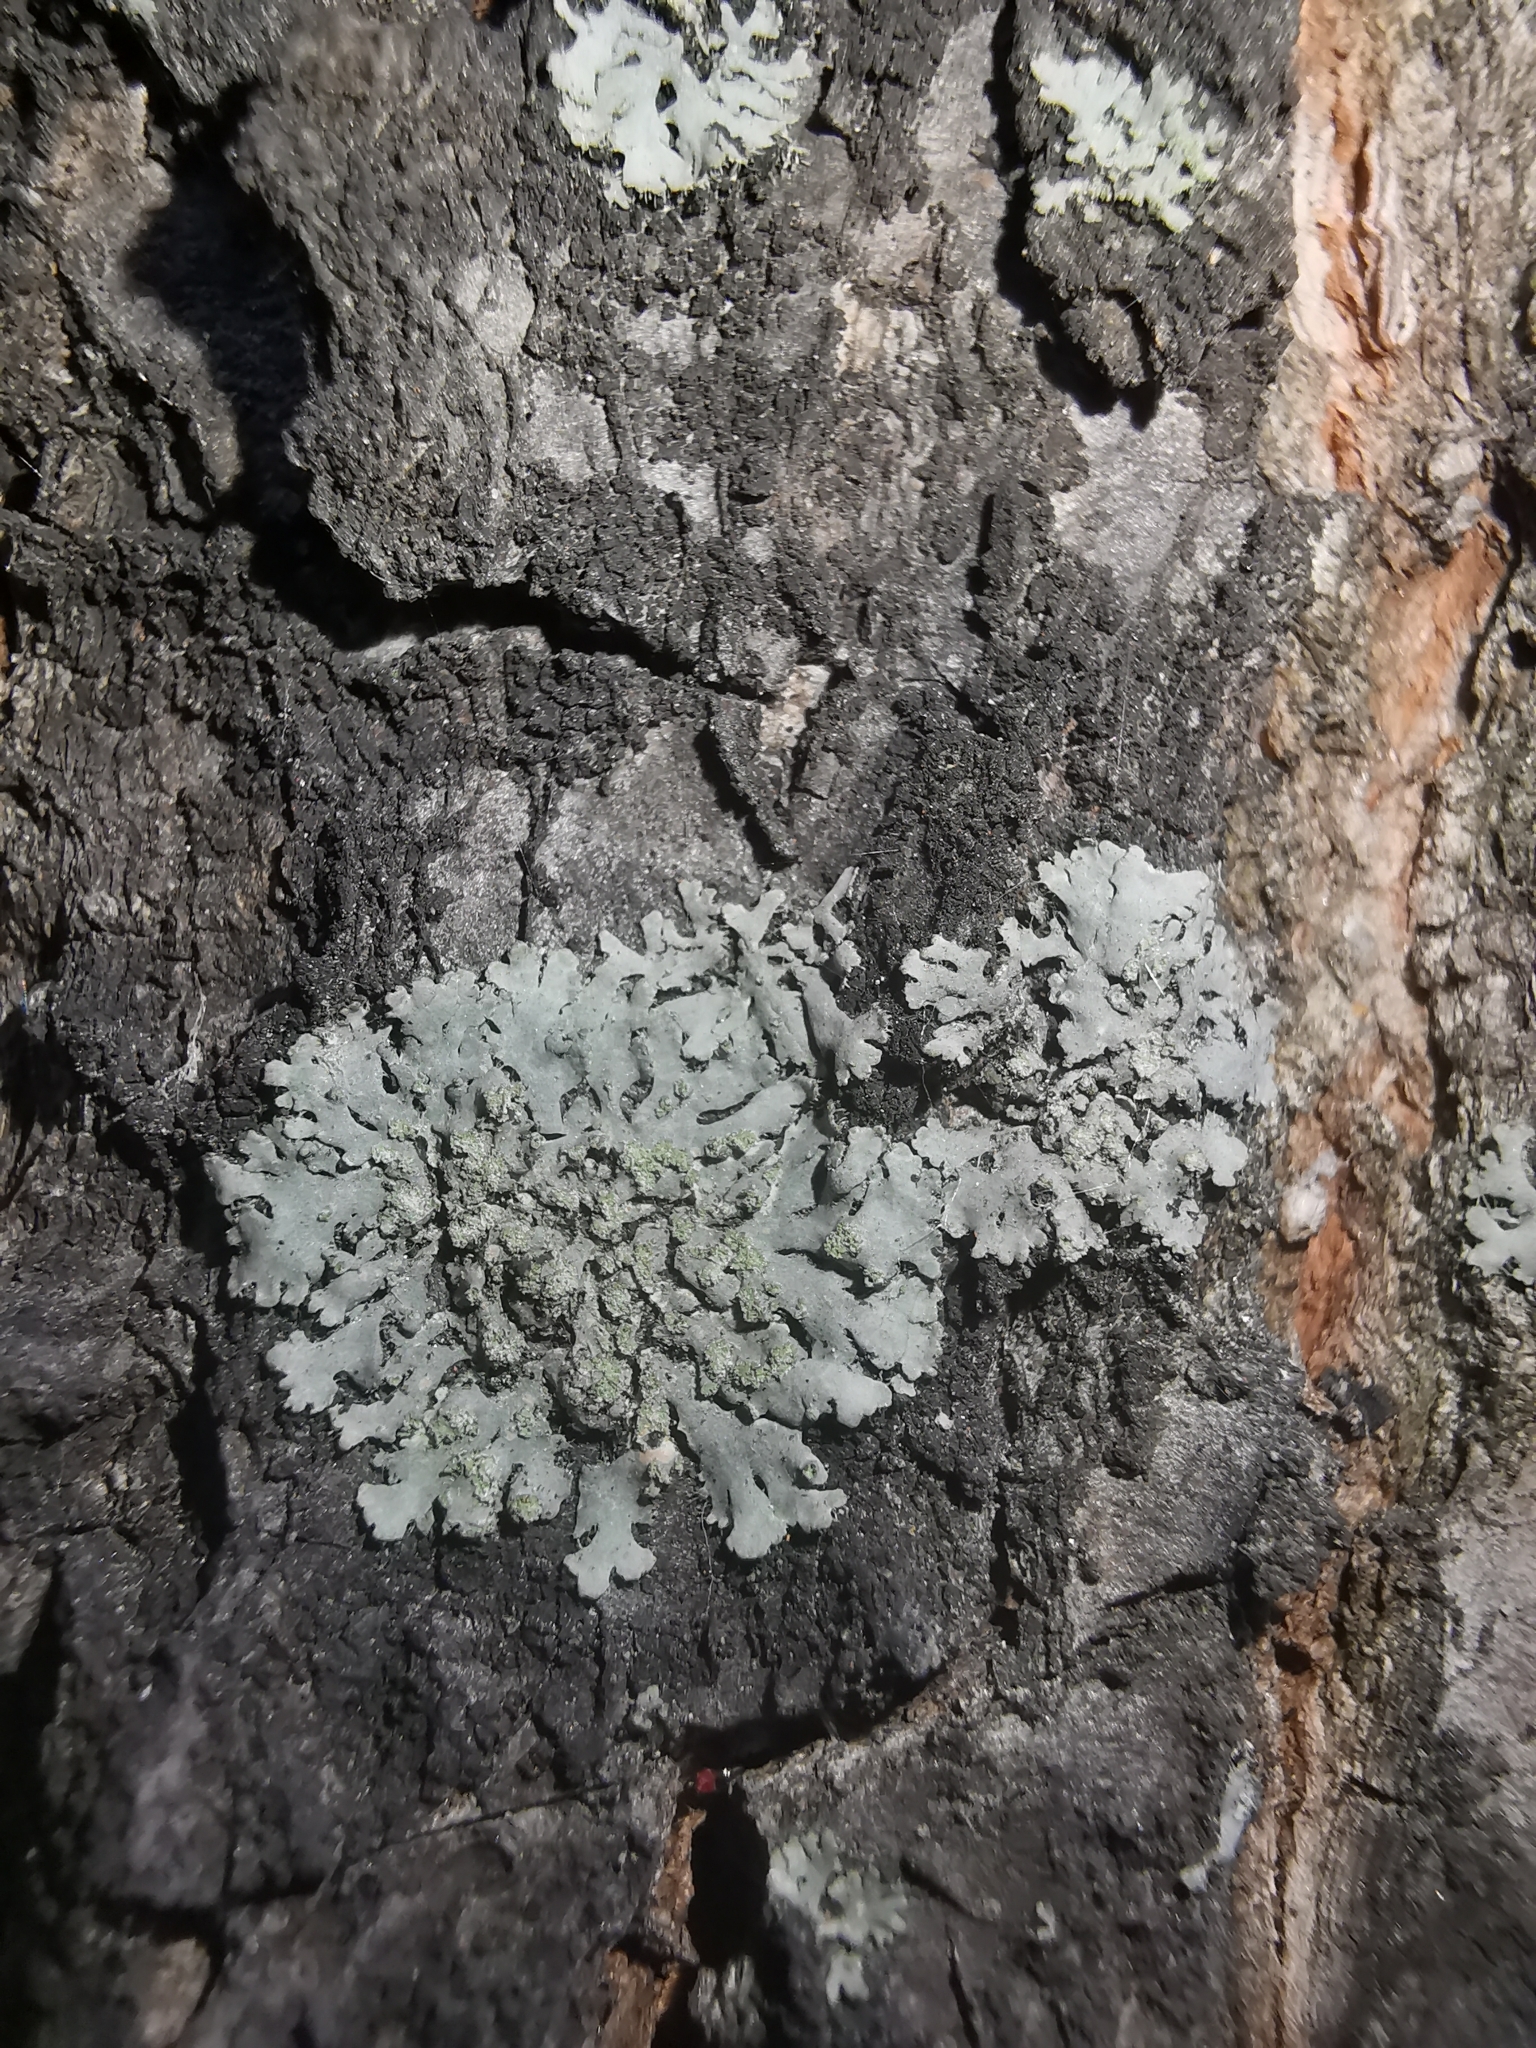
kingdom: Fungi
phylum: Ascomycota
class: Lecanoromycetes
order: Caliciales
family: Physciaceae
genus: Phaeophyscia
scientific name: Phaeophyscia orbicularis
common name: Mealy shadow lichen
